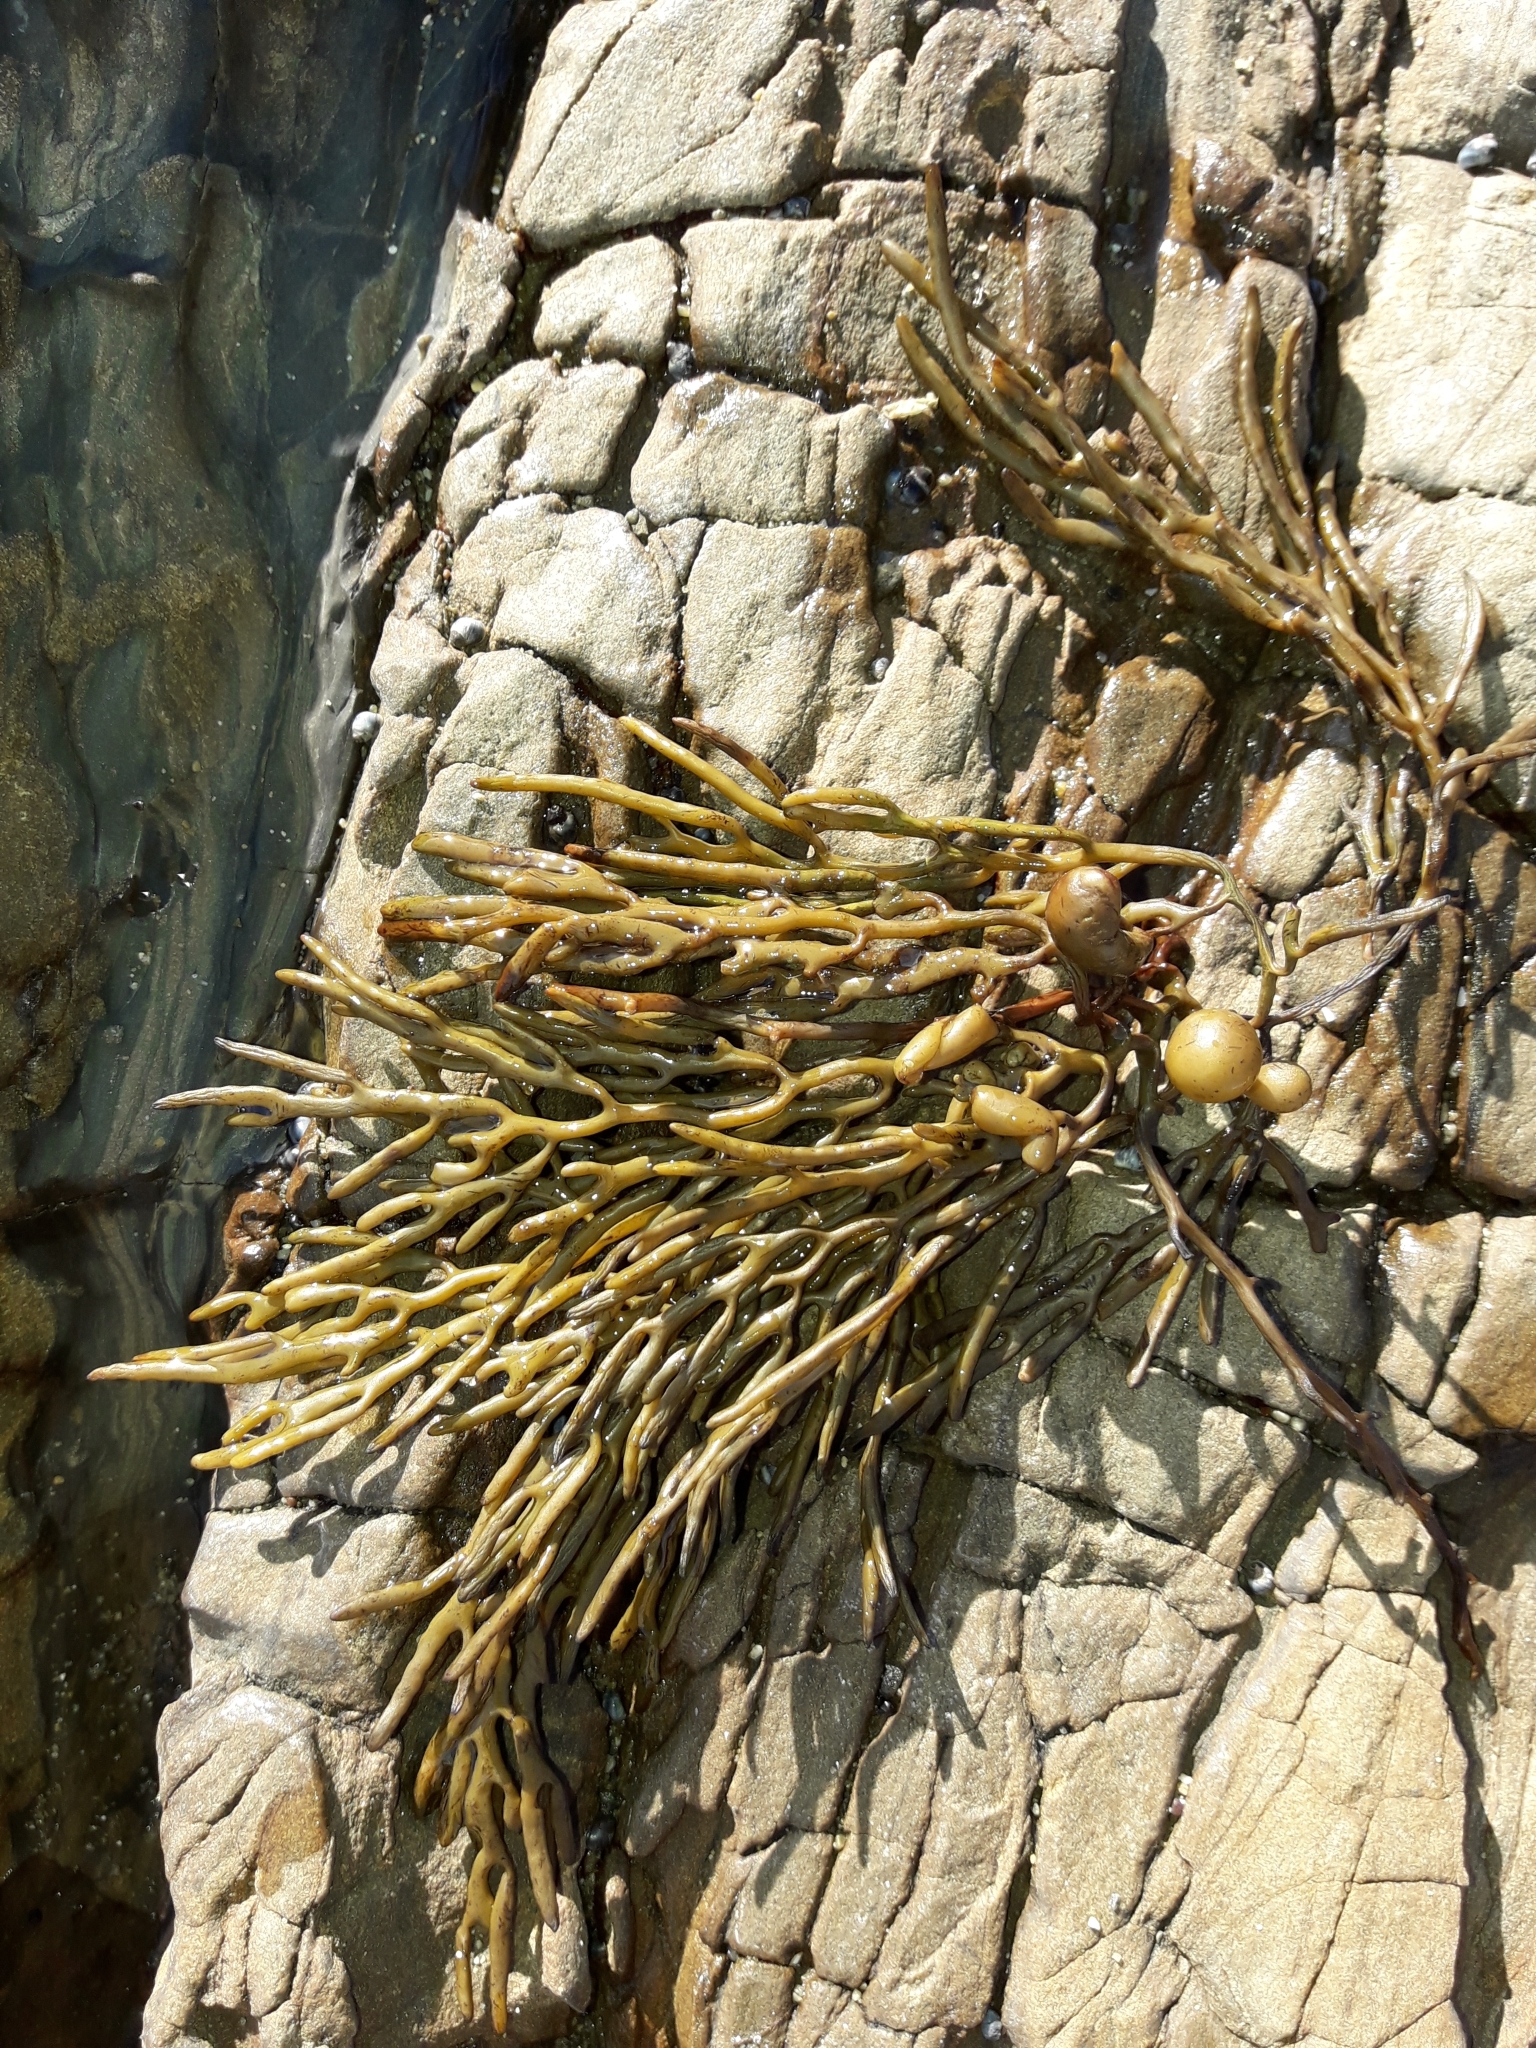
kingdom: Chromista
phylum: Ochrophyta
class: Phaeophyceae
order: Fucales
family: Sargassaceae
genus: Cystophora
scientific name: Cystophora retroflexa
